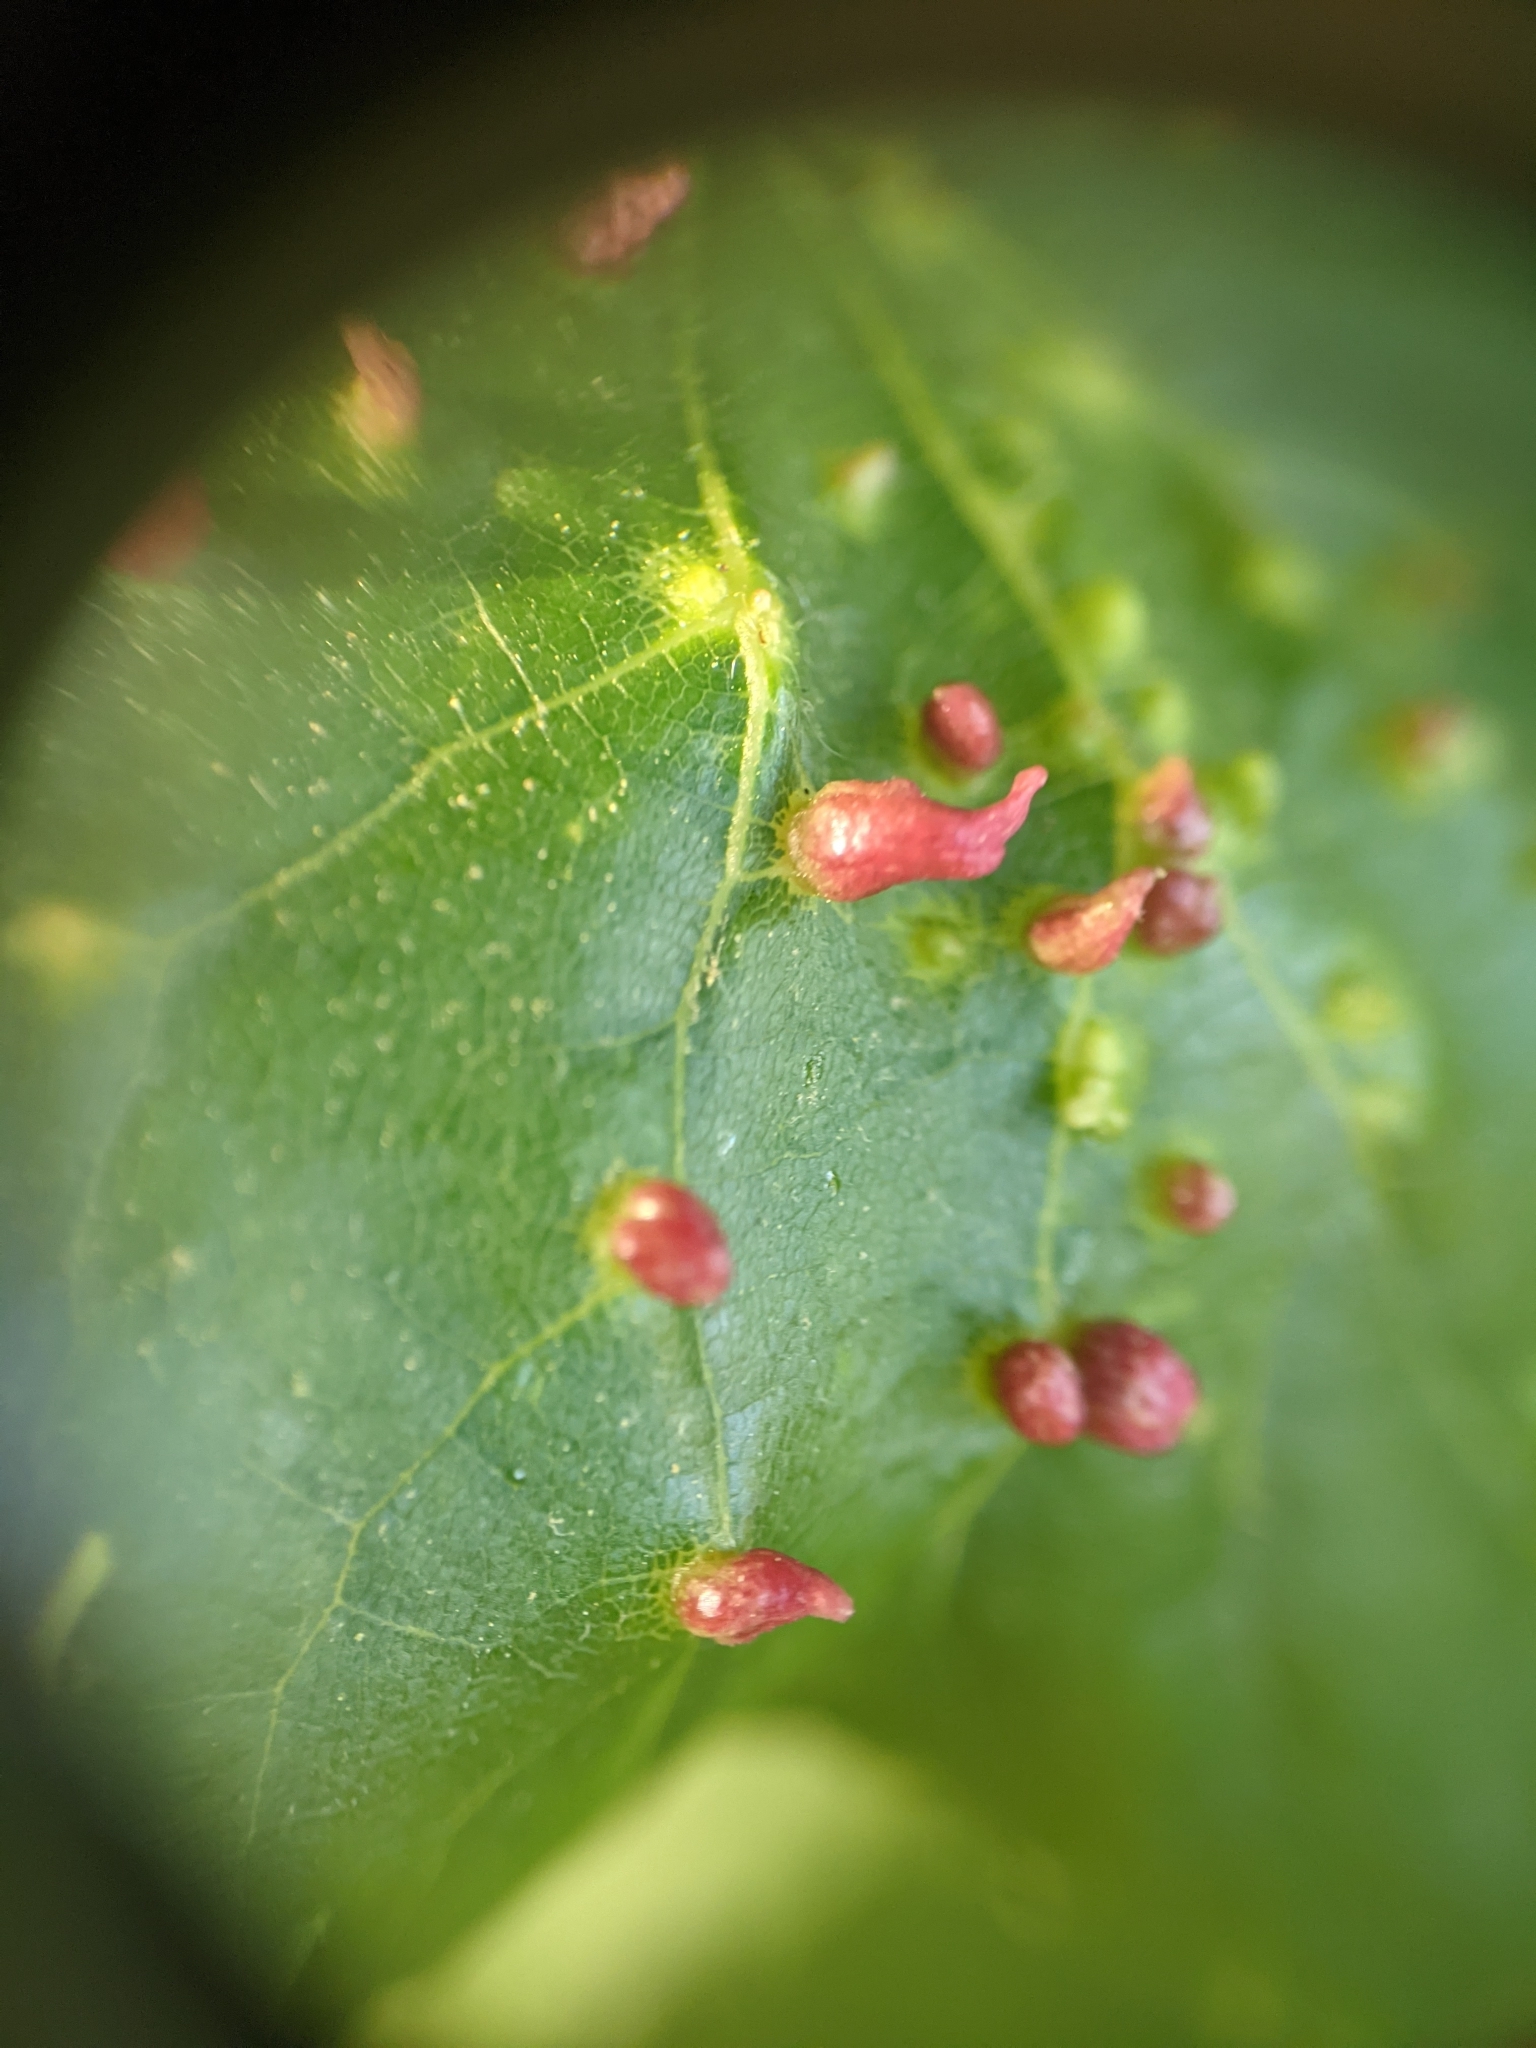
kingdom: Animalia
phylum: Arthropoda
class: Arachnida
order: Trombidiformes
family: Eriophyidae
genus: Eriophyes
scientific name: Eriophyes tiliae
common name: Red nail gall mite
